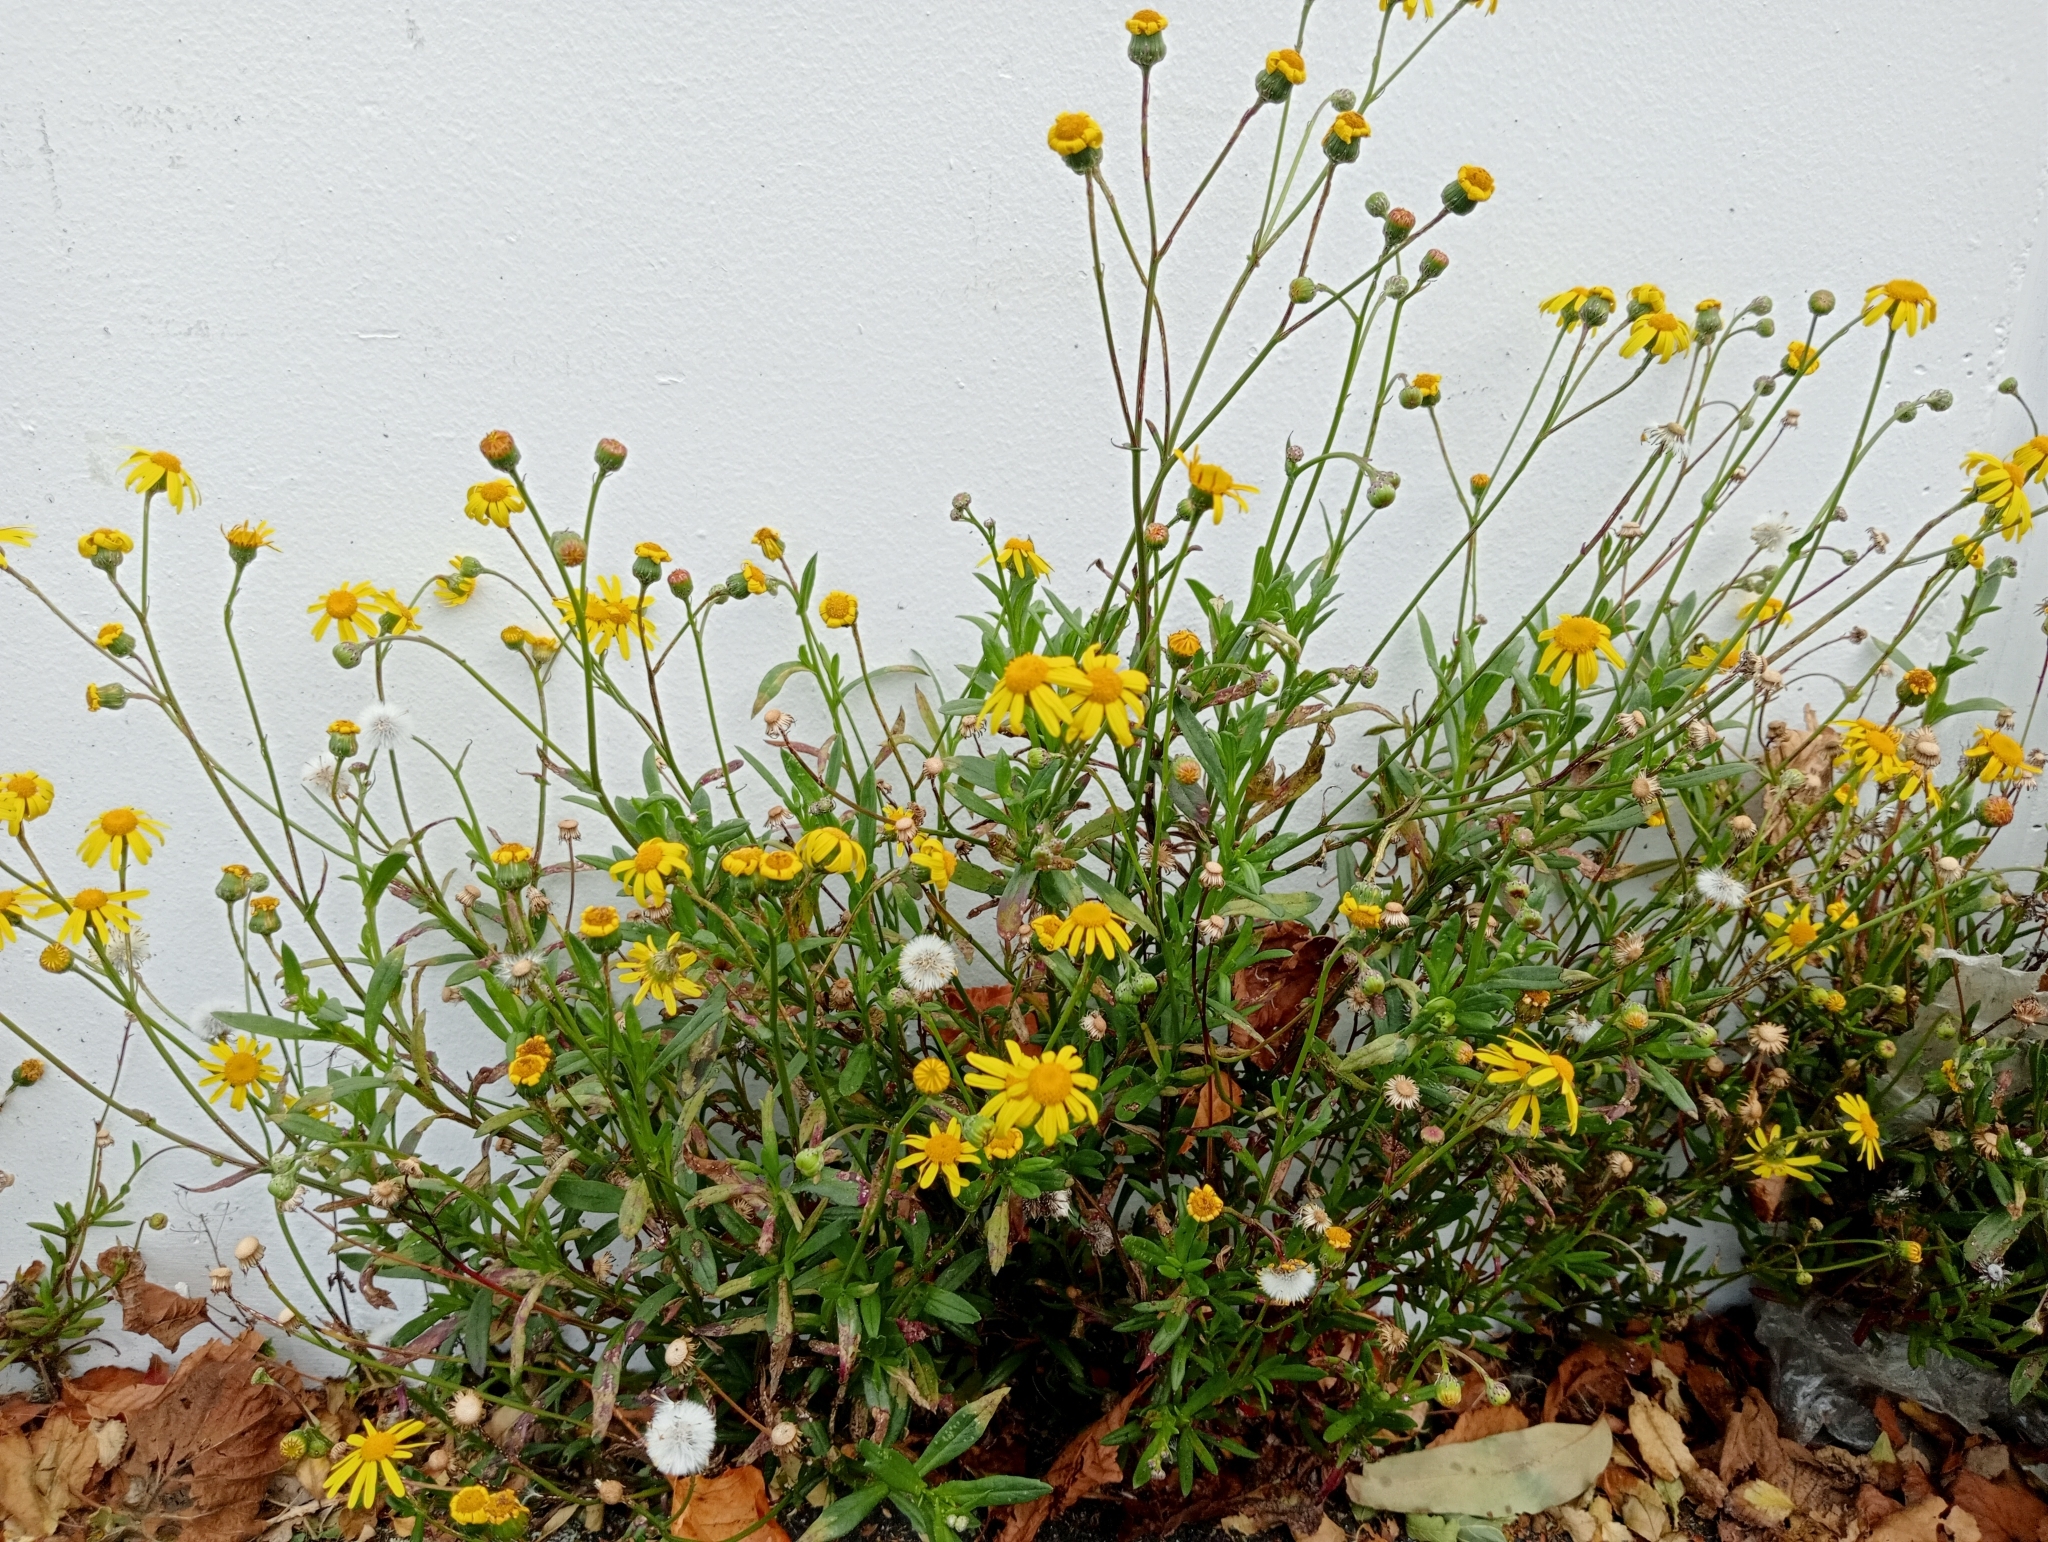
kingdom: Plantae
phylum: Tracheophyta
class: Magnoliopsida
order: Asterales
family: Asteraceae
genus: Senecio
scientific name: Senecio skirrhodon
